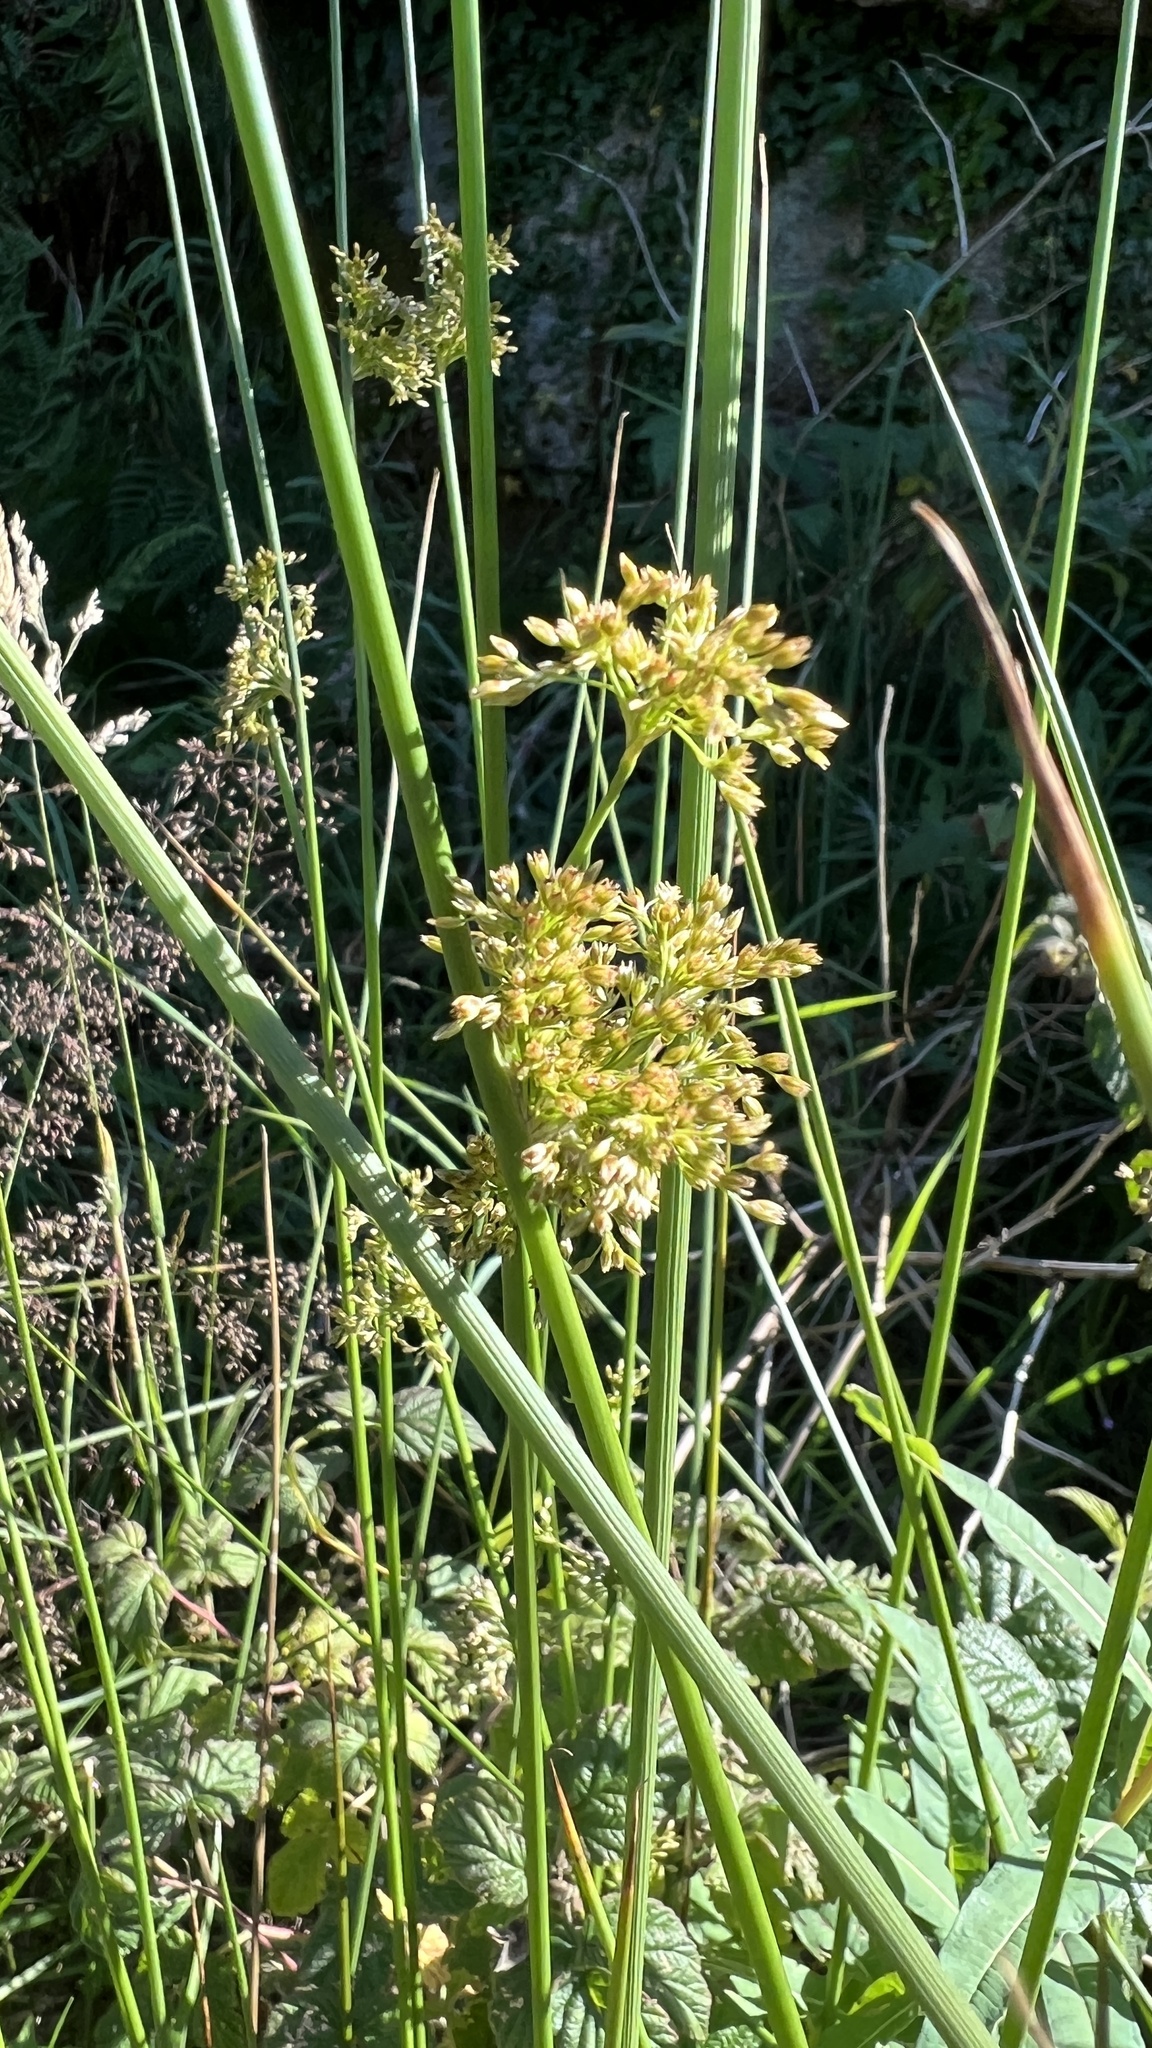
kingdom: Plantae
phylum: Tracheophyta
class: Liliopsida
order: Poales
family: Juncaceae
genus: Juncus
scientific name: Juncus effusus
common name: Soft rush
